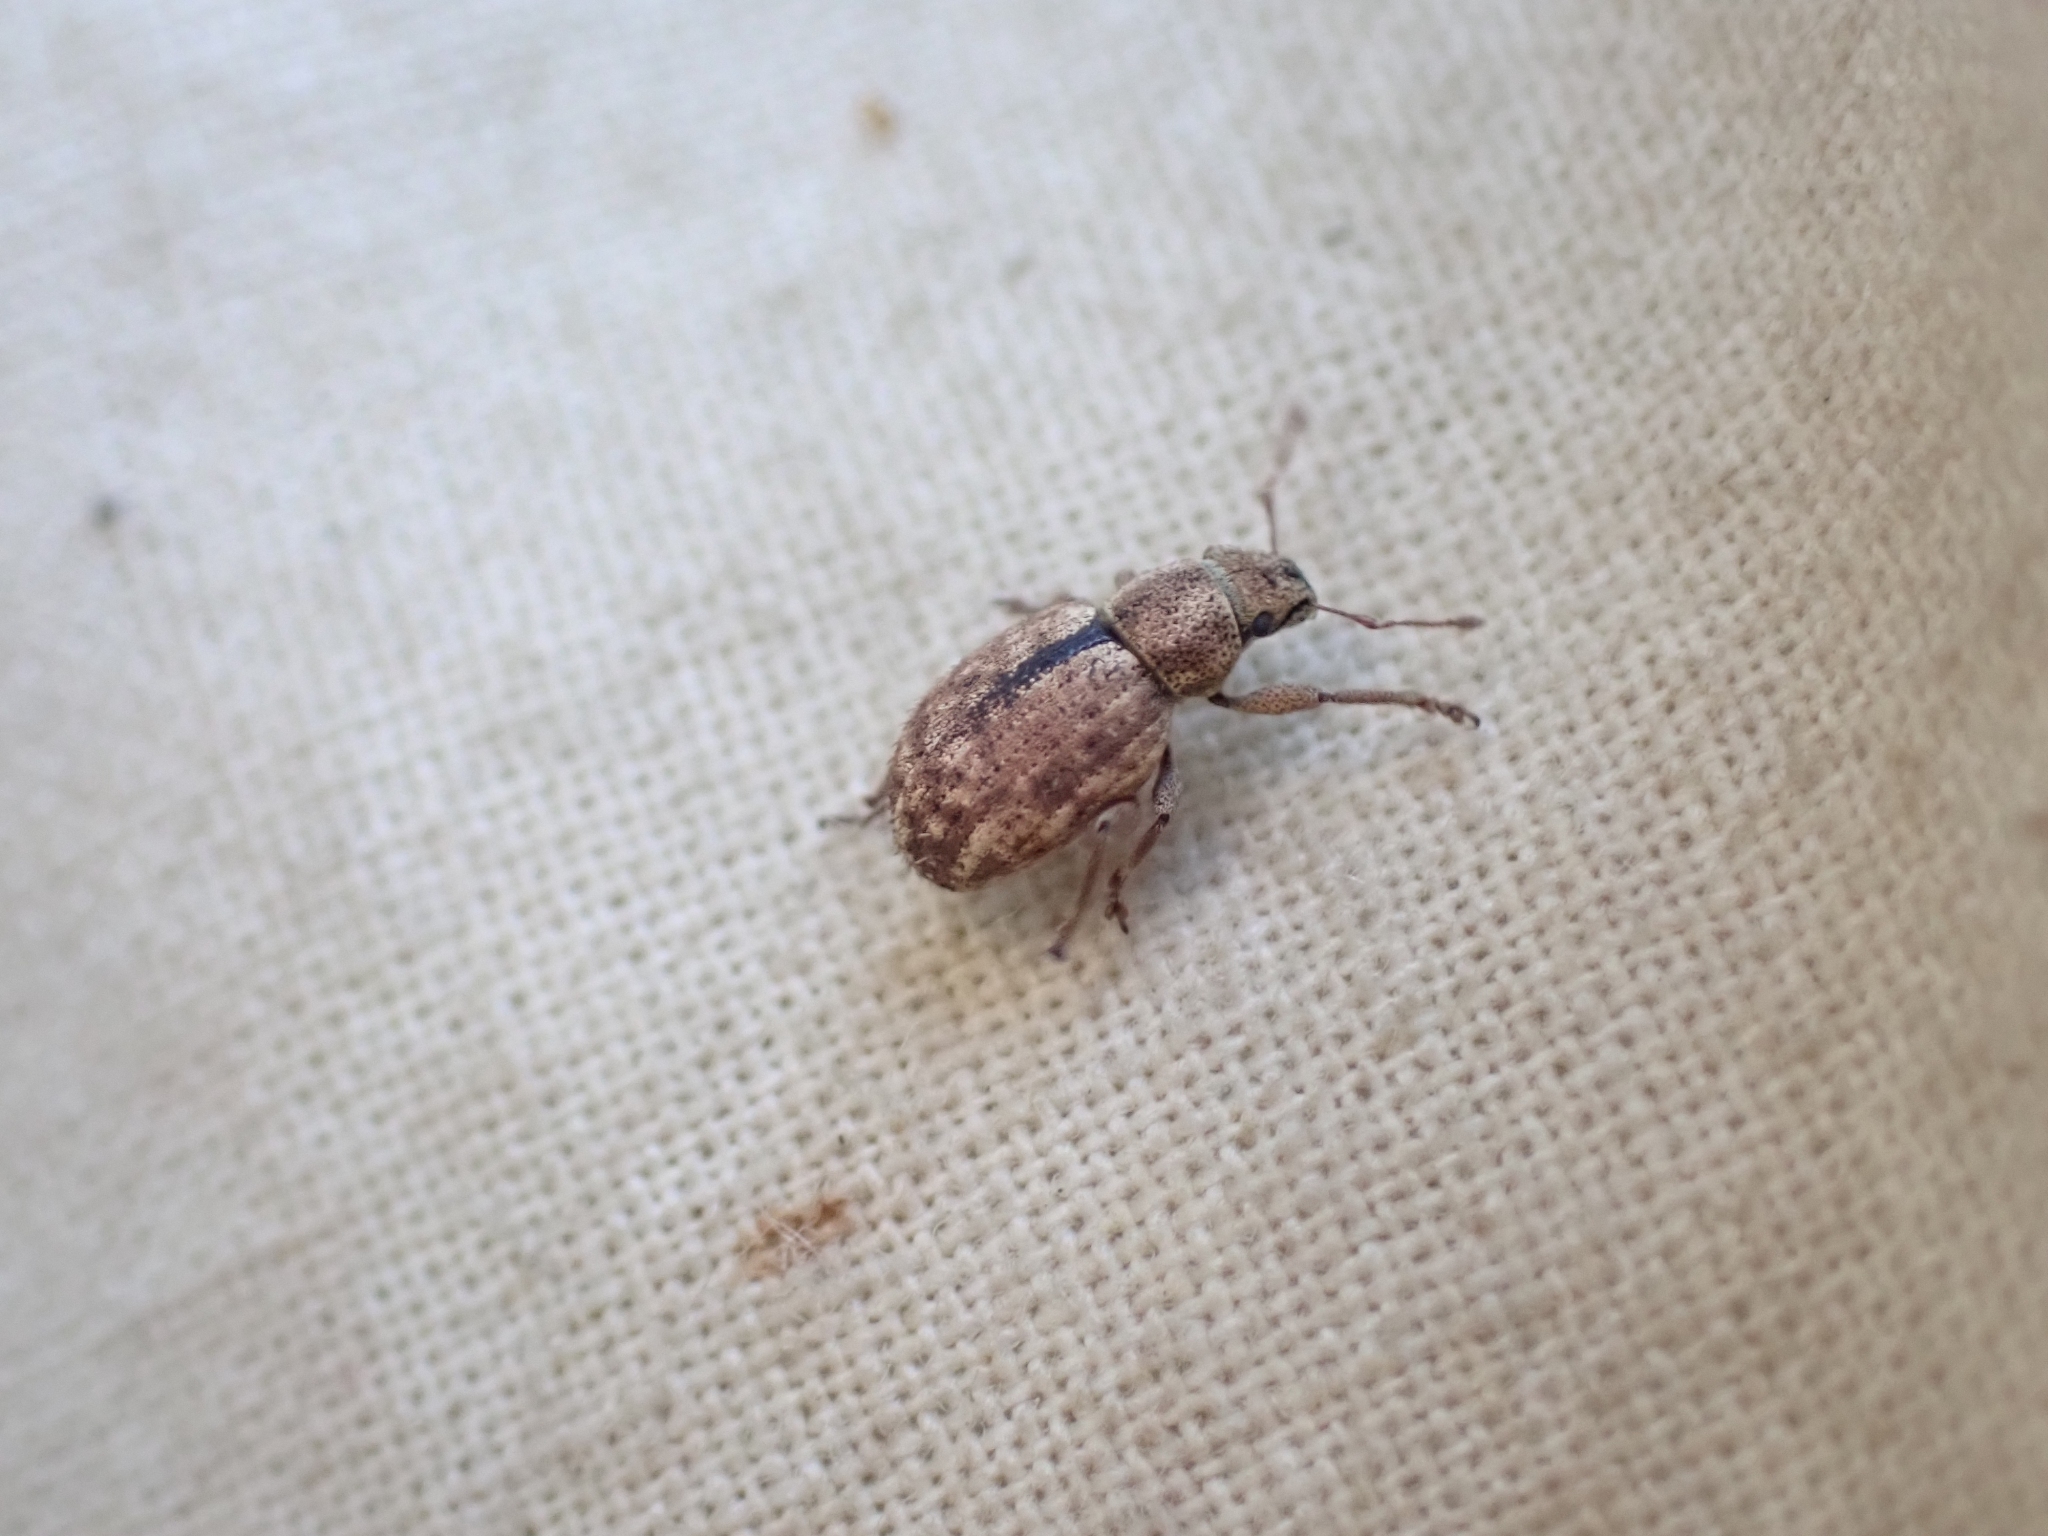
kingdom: Animalia
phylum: Arthropoda
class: Insecta
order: Coleoptera
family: Curculionidae
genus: Strophosoma
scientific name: Strophosoma melanogrammum
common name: Weevil
